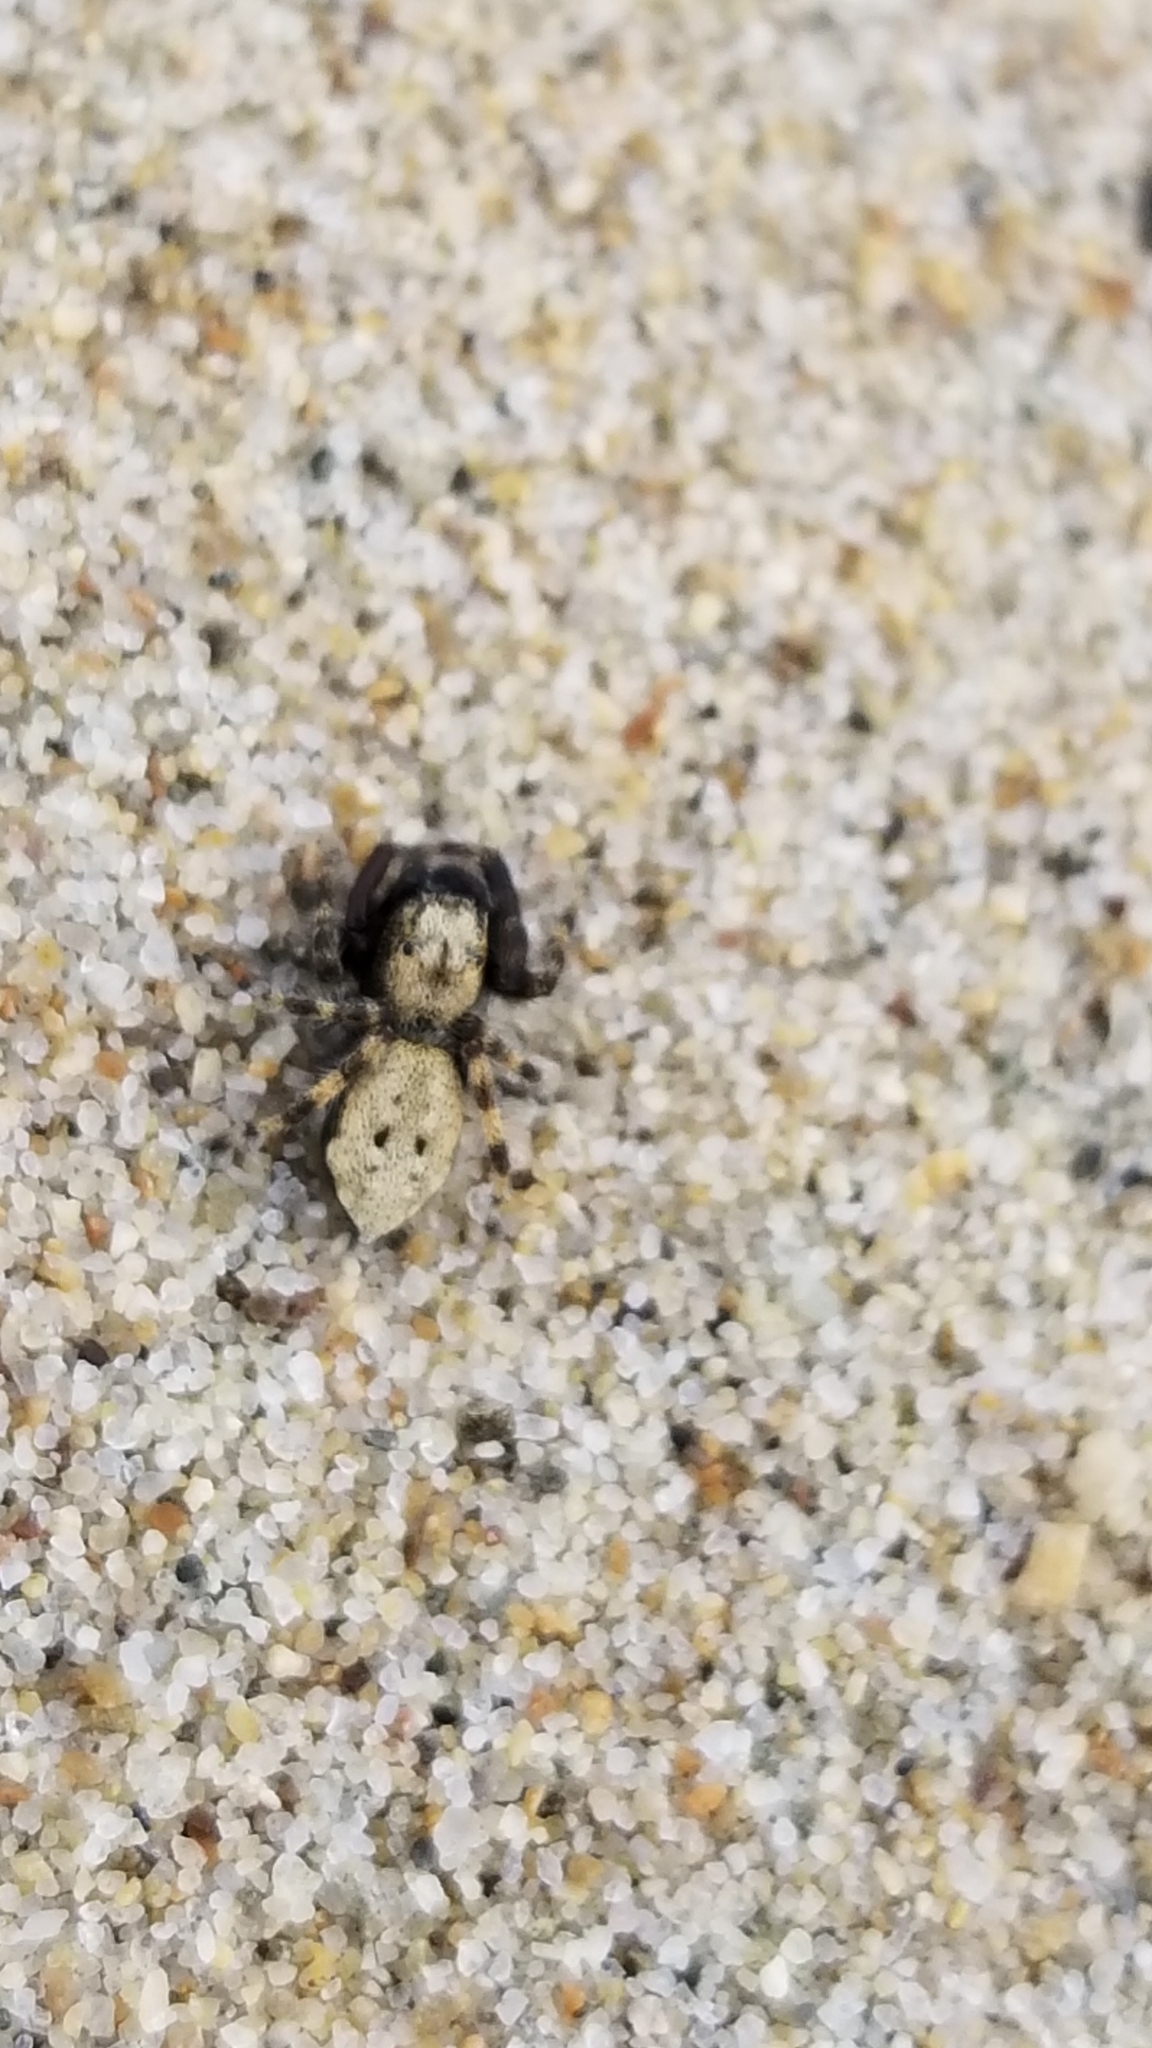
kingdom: Animalia
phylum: Arthropoda
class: Arachnida
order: Araneae
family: Salticidae
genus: Terralonus
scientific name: Terralonus californicus
